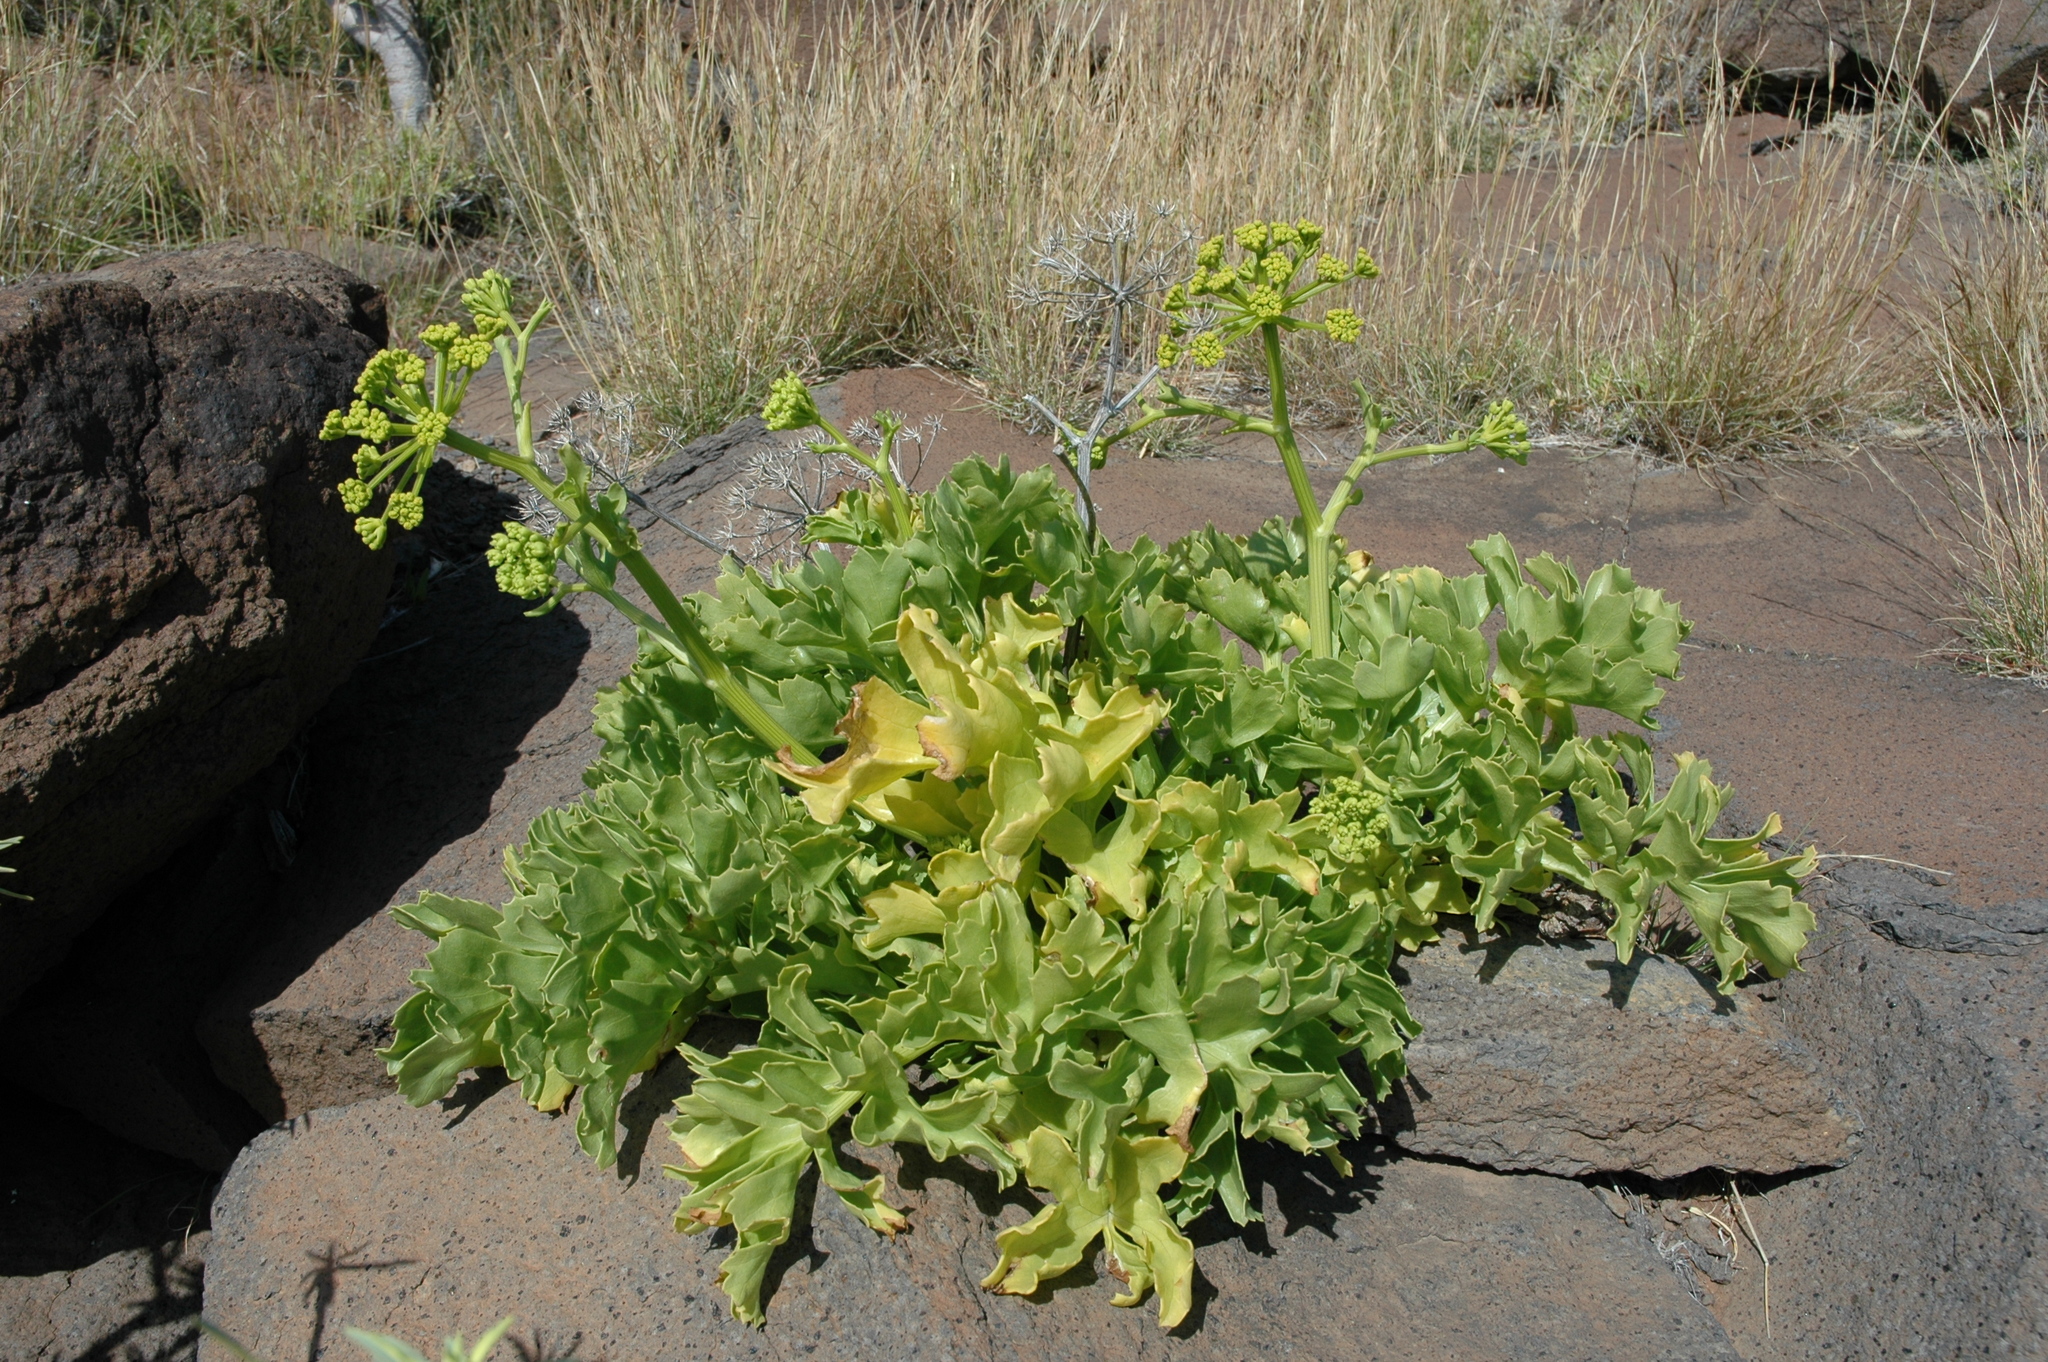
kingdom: Plantae
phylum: Tracheophyta
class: Magnoliopsida
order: Apiales
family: Apiaceae
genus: Astydamia
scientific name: Astydamia latifolia
